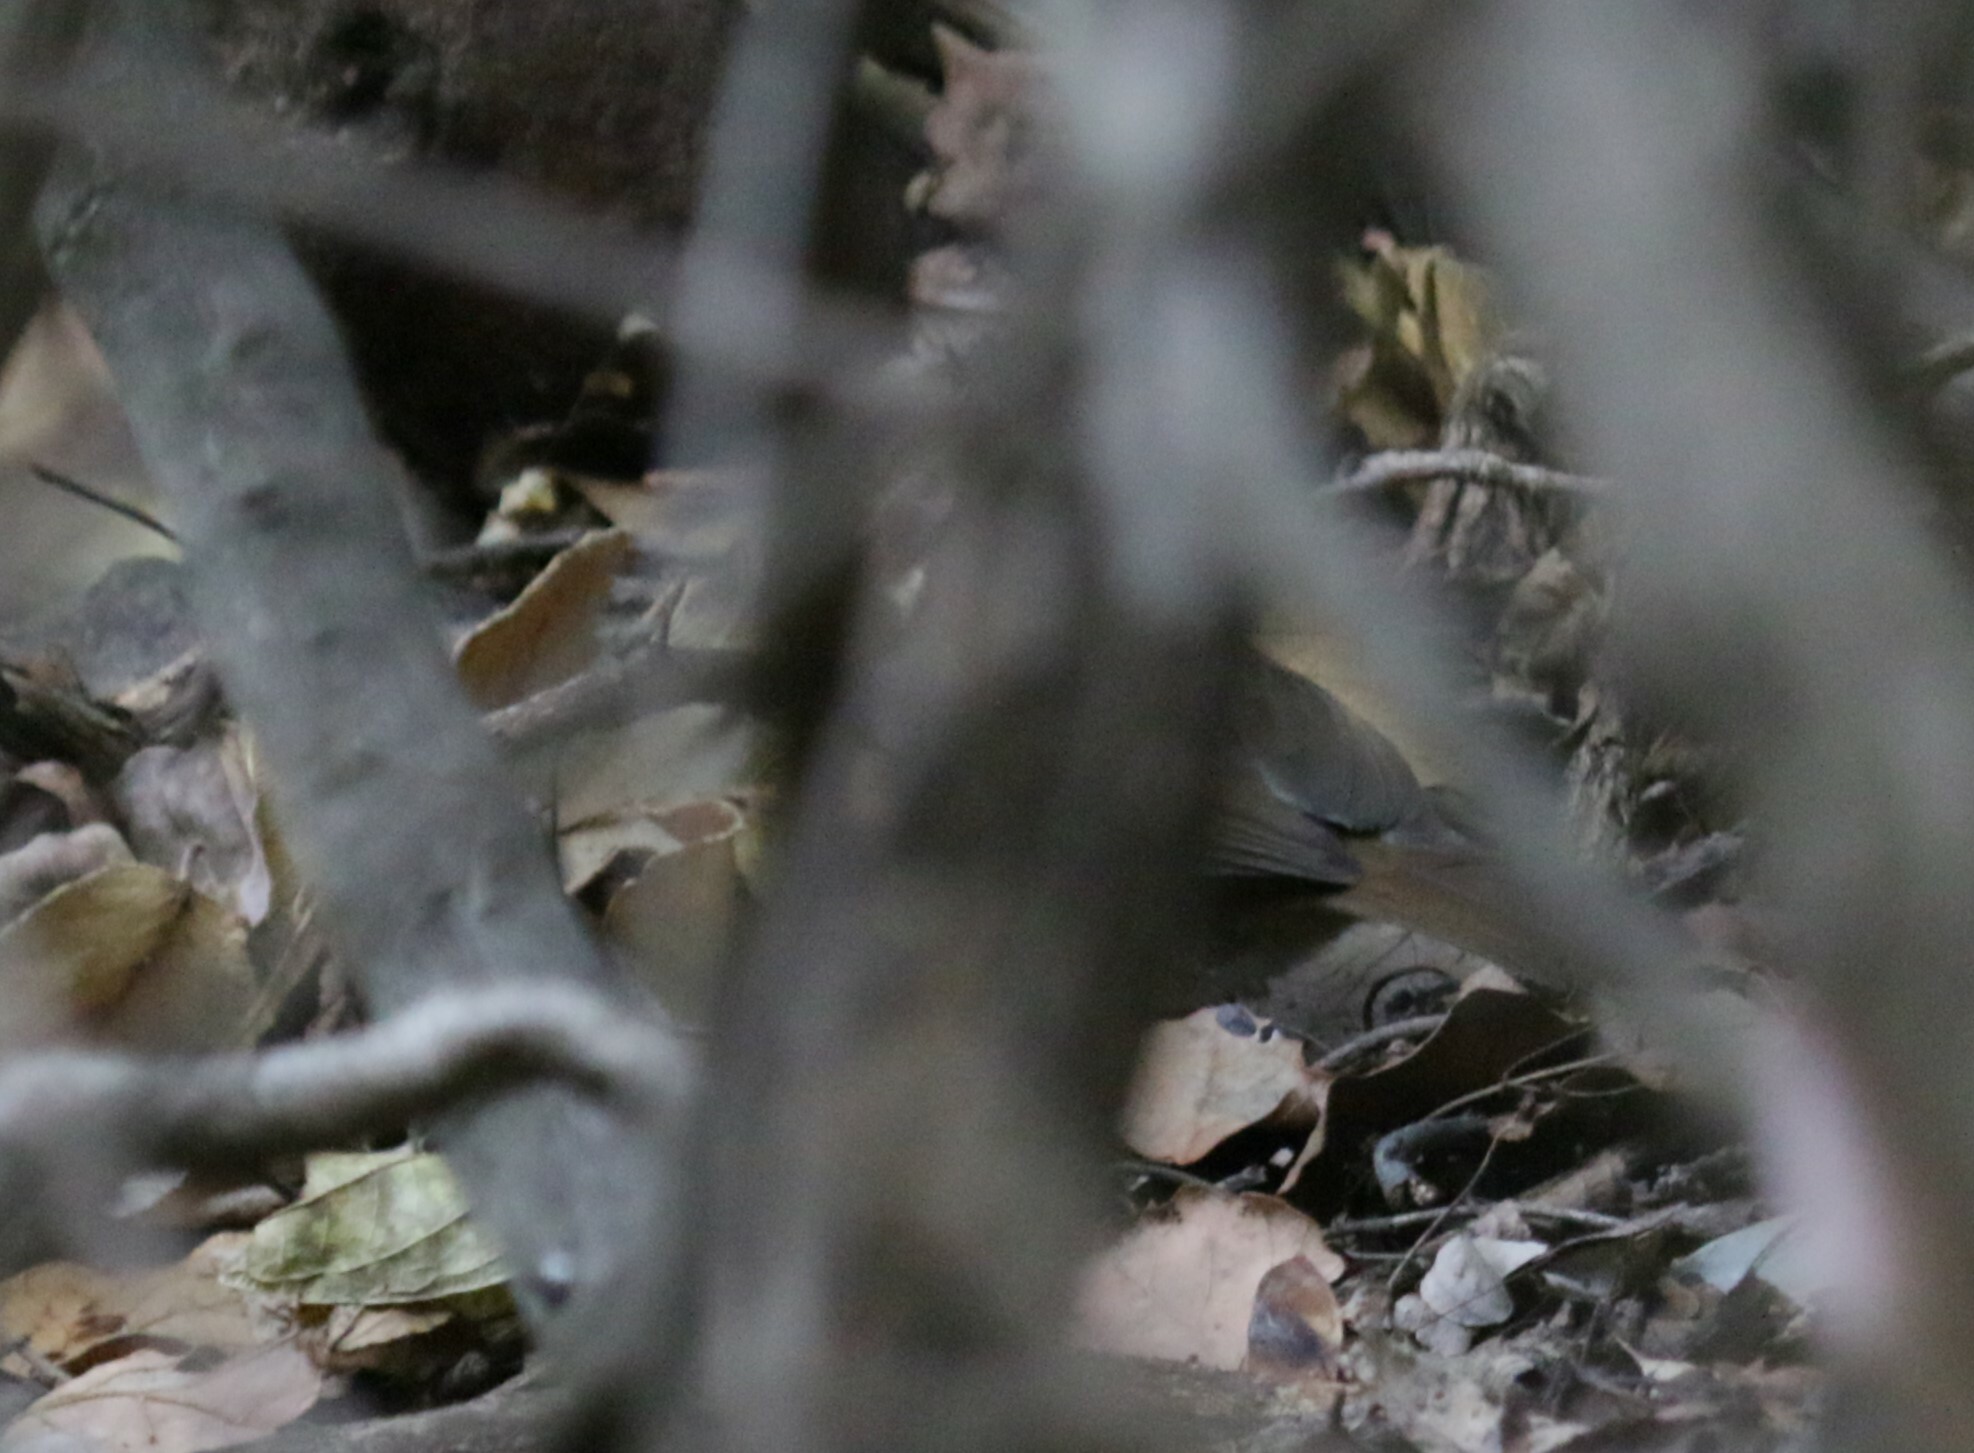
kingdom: Animalia
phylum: Chordata
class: Aves
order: Passeriformes
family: Pycnonotidae
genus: Phyllastrephus
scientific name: Phyllastrephus terrestris
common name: Terrestrial brownbul
